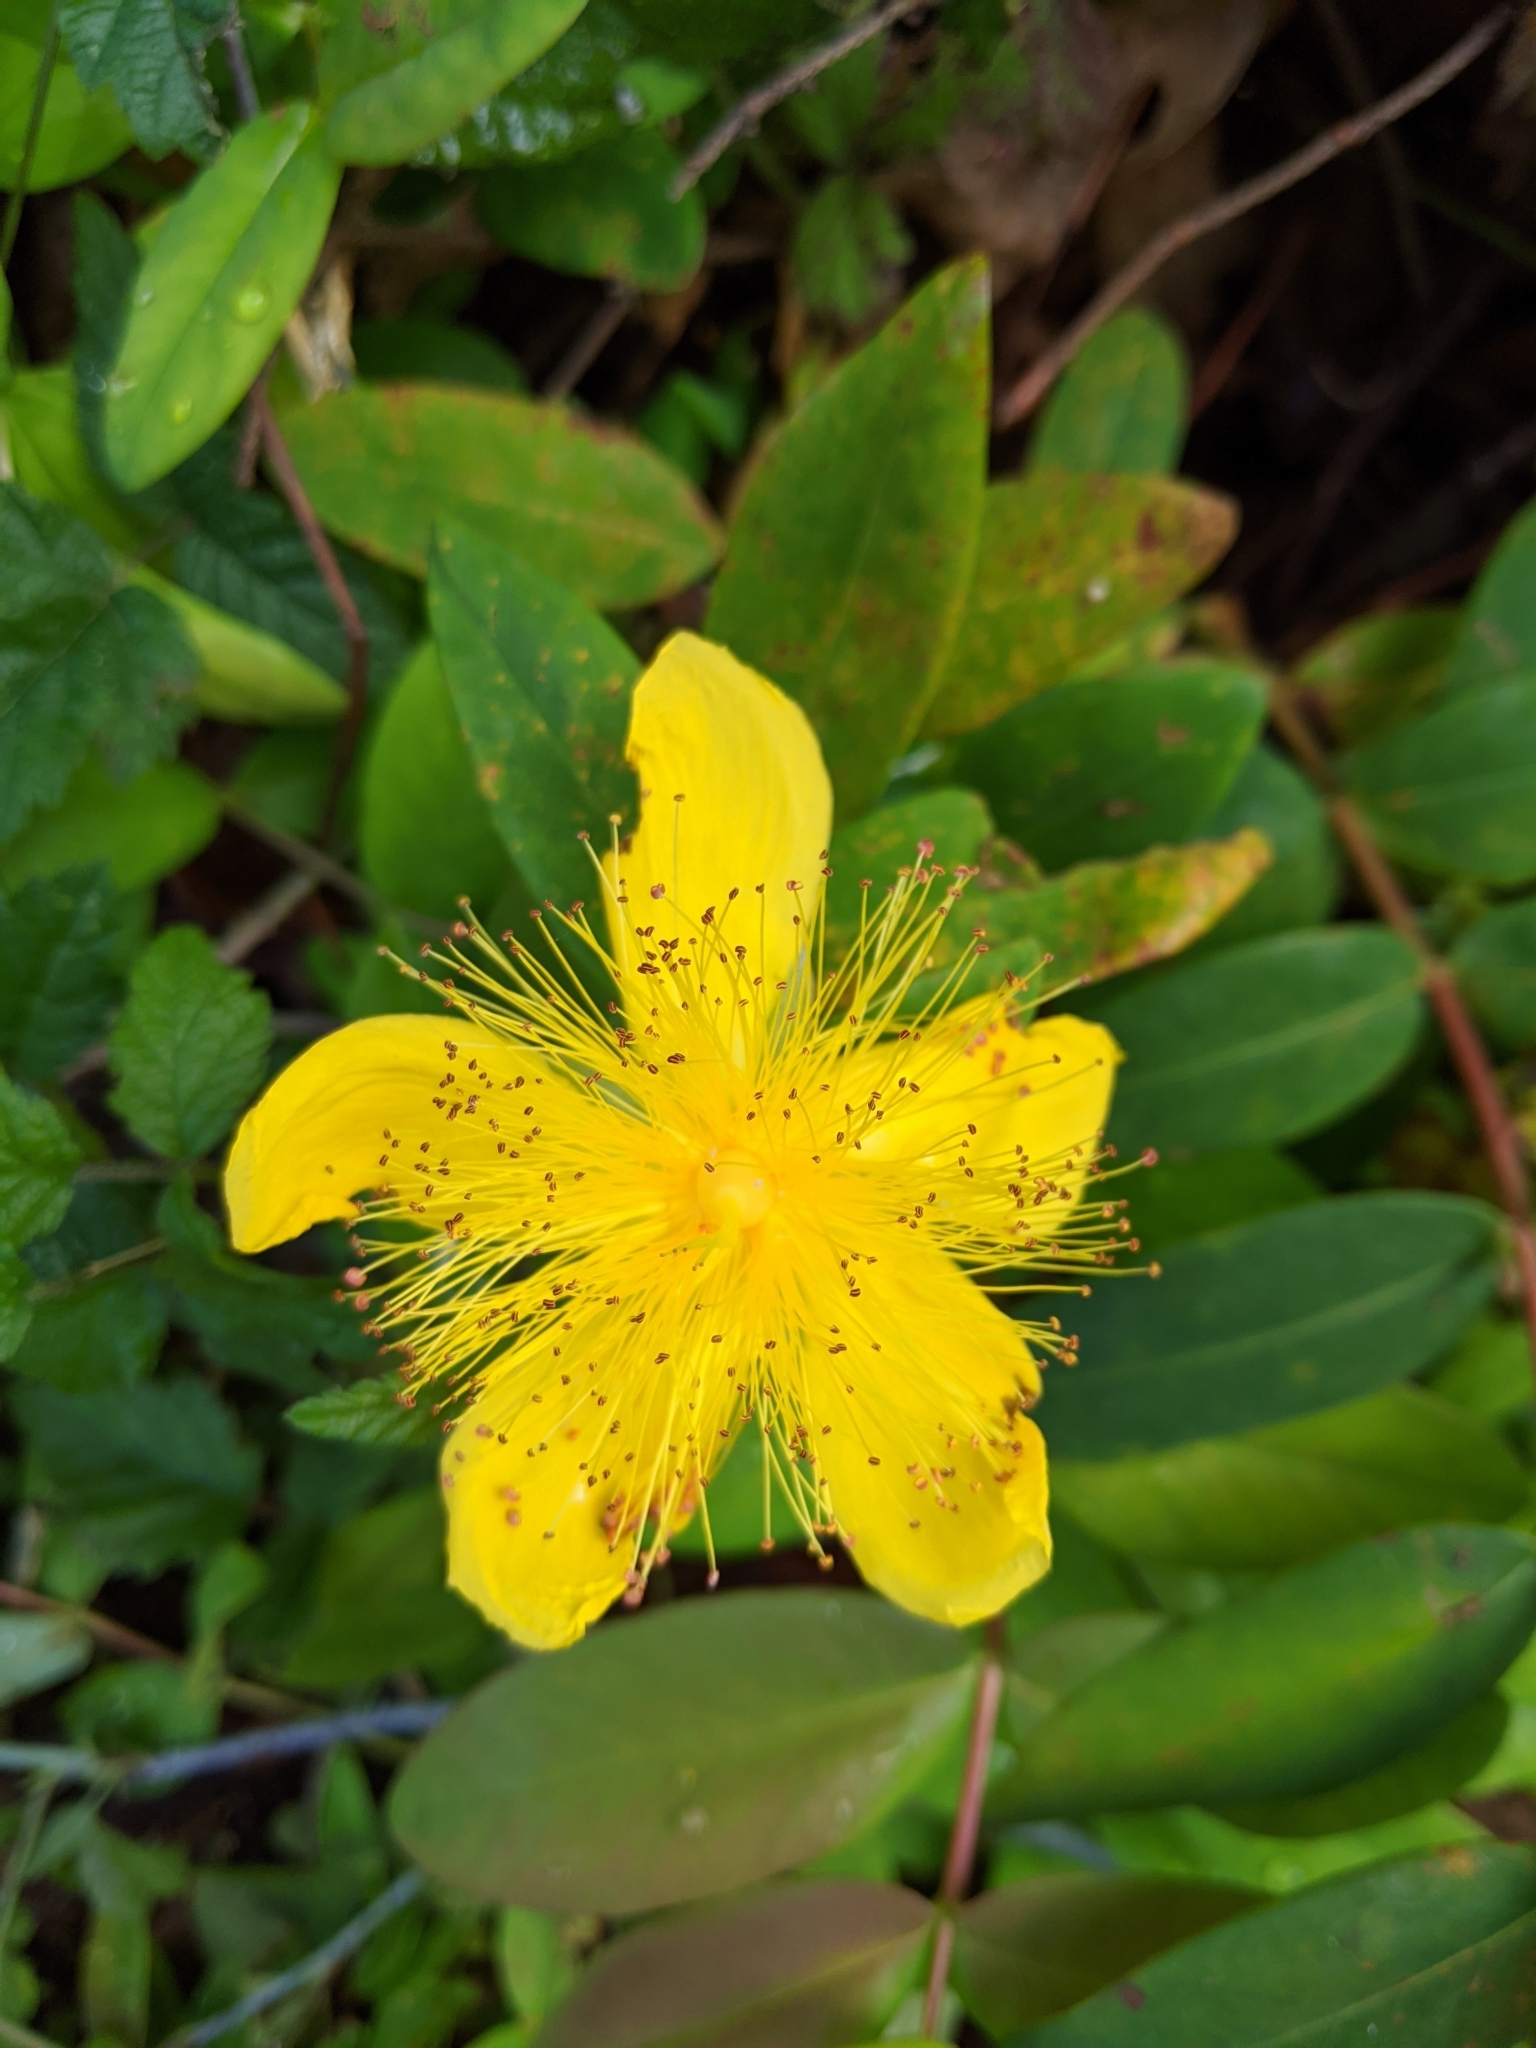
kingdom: Plantae
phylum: Tracheophyta
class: Magnoliopsida
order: Malpighiales
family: Hypericaceae
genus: Hypericum
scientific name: Hypericum calycinum
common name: Rose-of-sharon
